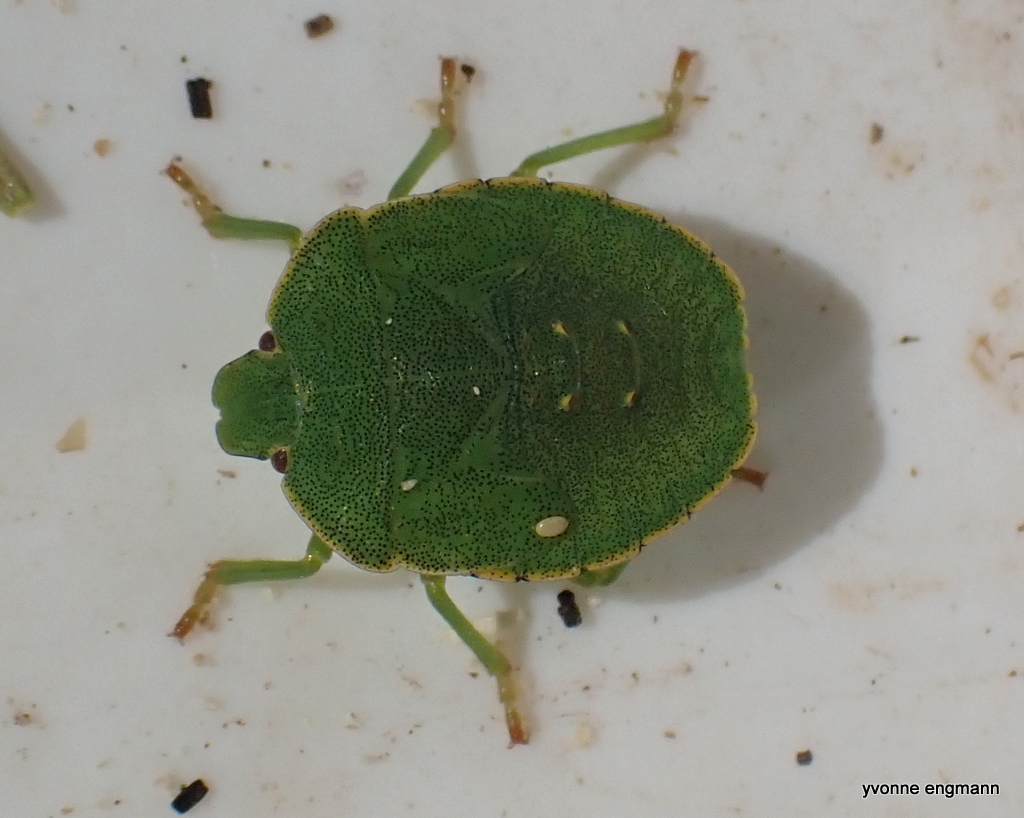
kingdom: Animalia
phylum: Arthropoda
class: Insecta
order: Hemiptera
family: Pentatomidae
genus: Palomena
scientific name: Palomena prasina
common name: Green shieldbug
